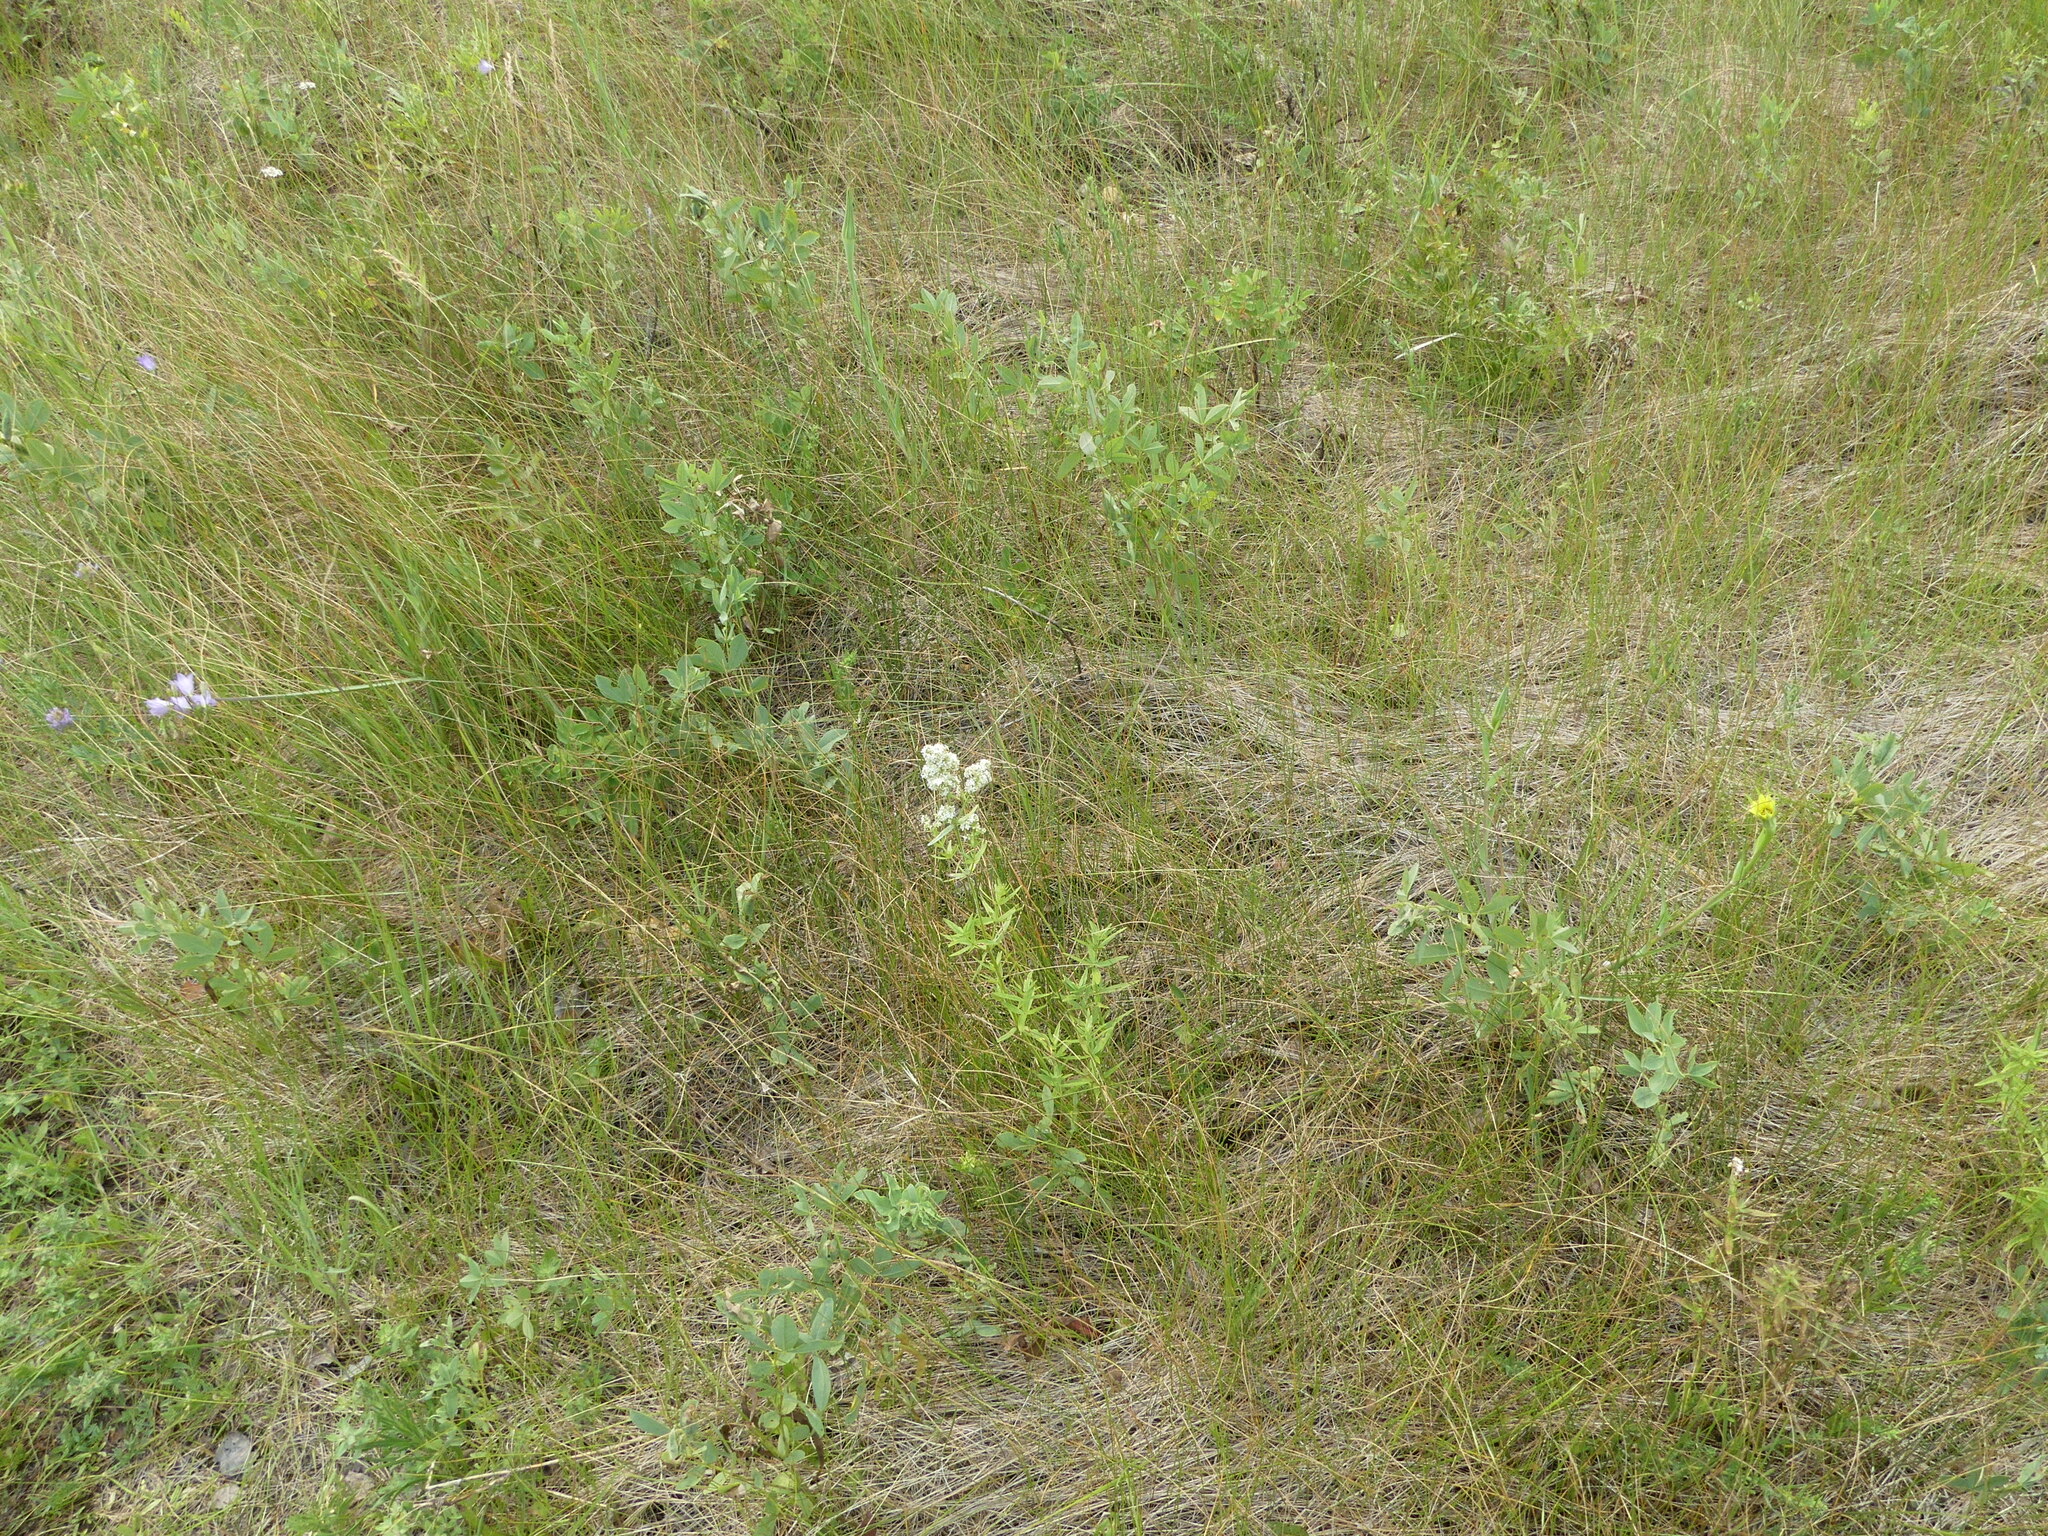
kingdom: Plantae
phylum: Tracheophyta
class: Magnoliopsida
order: Gentianales
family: Rubiaceae
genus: Galium
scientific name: Galium boreale
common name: Northern bedstraw
